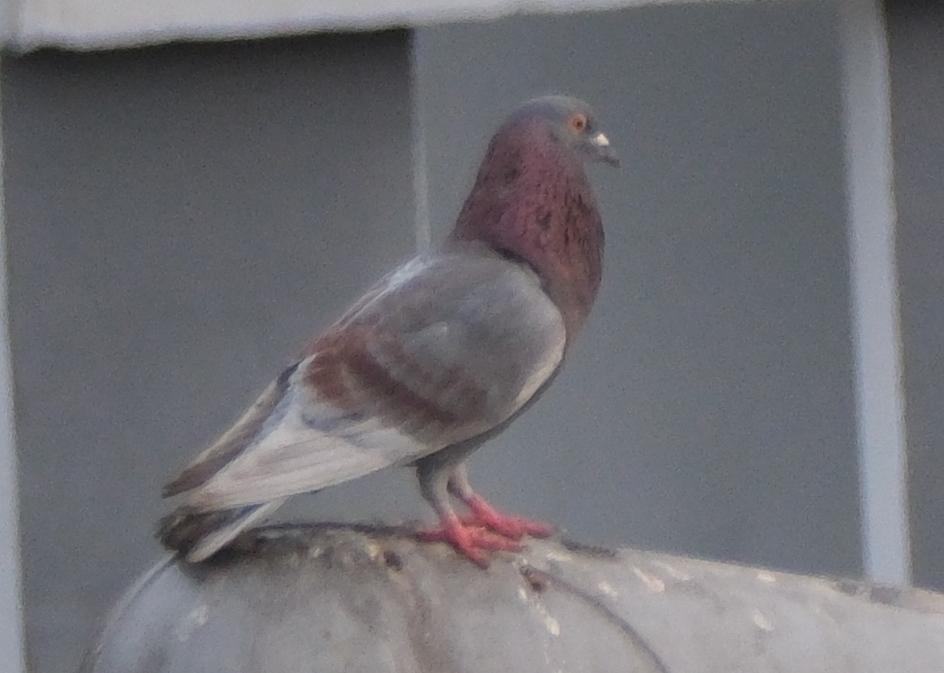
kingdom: Animalia
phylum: Chordata
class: Aves
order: Columbiformes
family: Columbidae
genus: Columba
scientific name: Columba livia
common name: Rock pigeon
